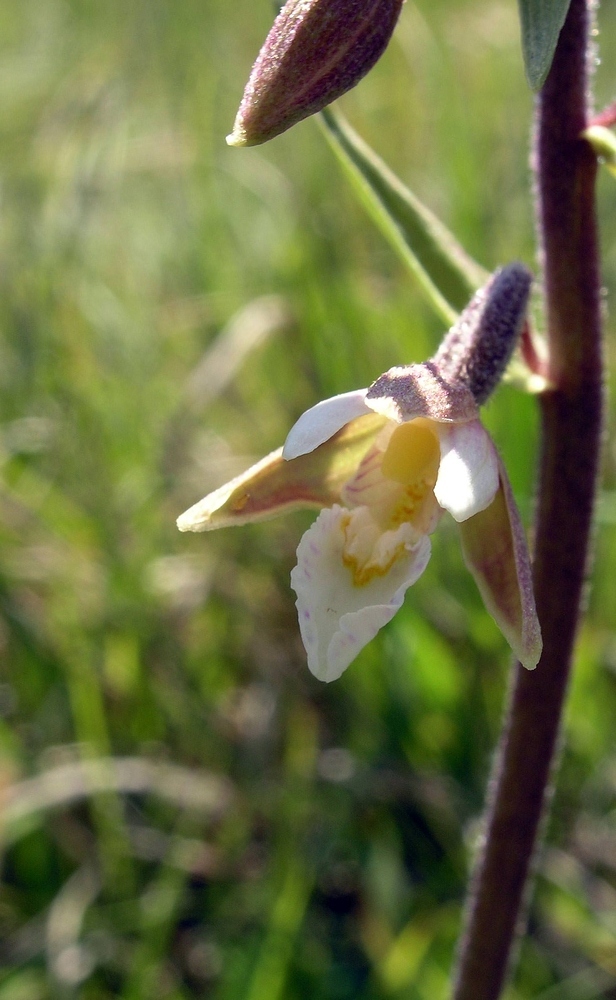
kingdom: Plantae
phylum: Tracheophyta
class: Liliopsida
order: Asparagales
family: Orchidaceae
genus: Epipactis
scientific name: Epipactis palustris
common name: Marsh helleborine
